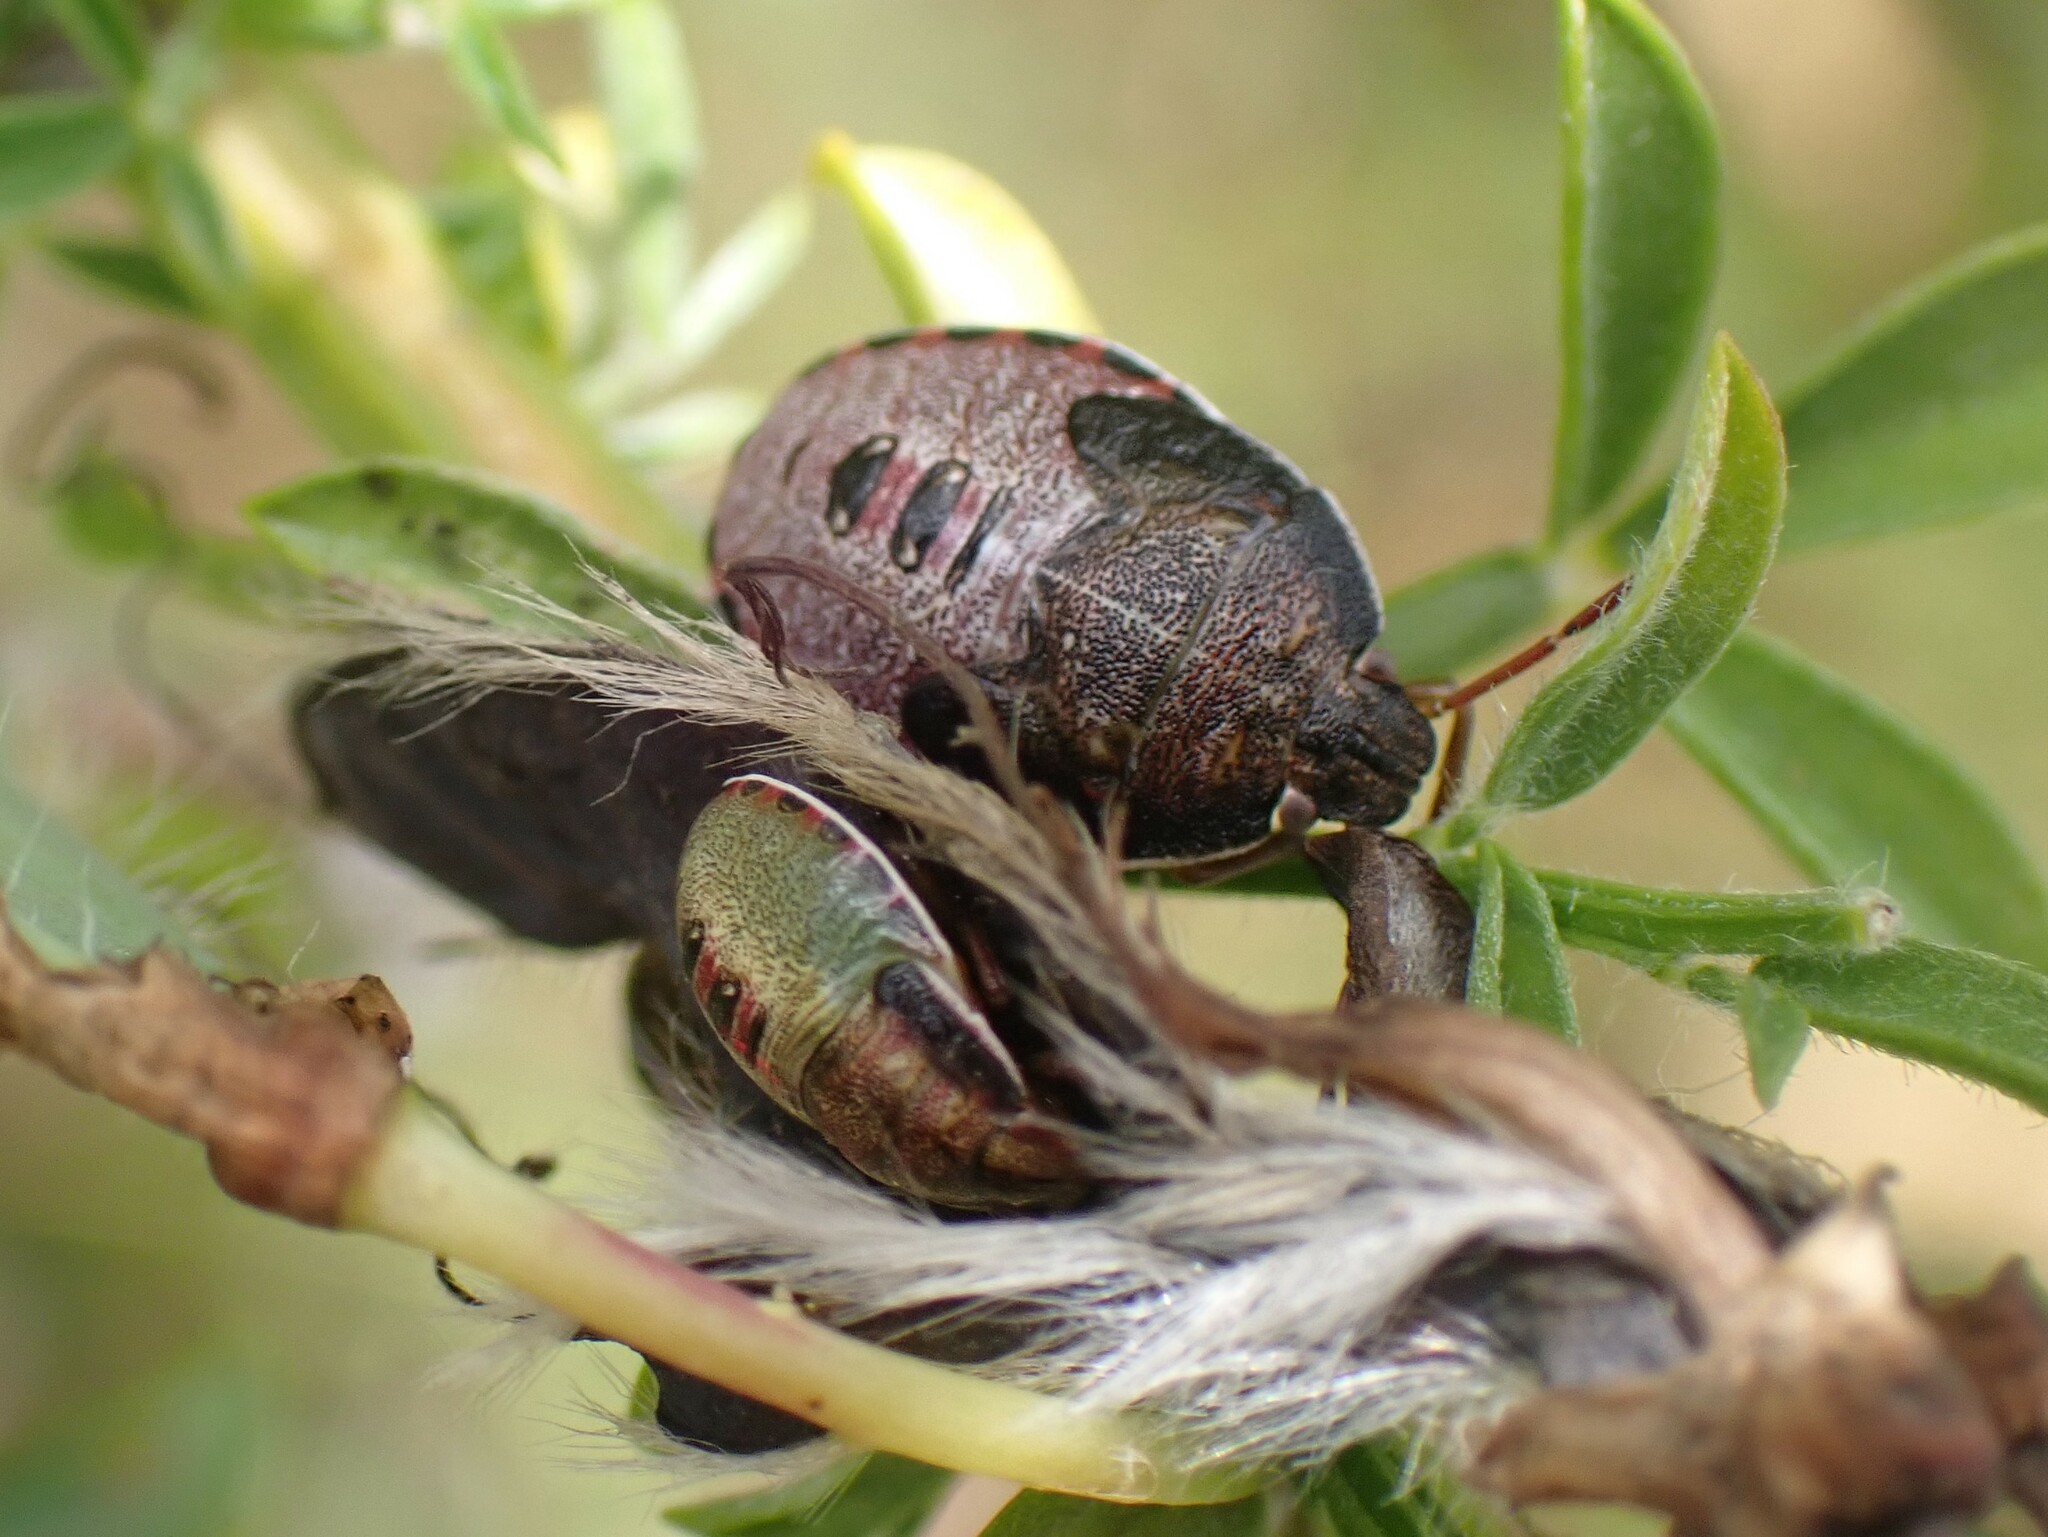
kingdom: Animalia
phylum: Arthropoda
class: Insecta
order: Hemiptera
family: Pentatomidae
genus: Piezodorus
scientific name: Piezodorus lituratus
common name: Stink bug
